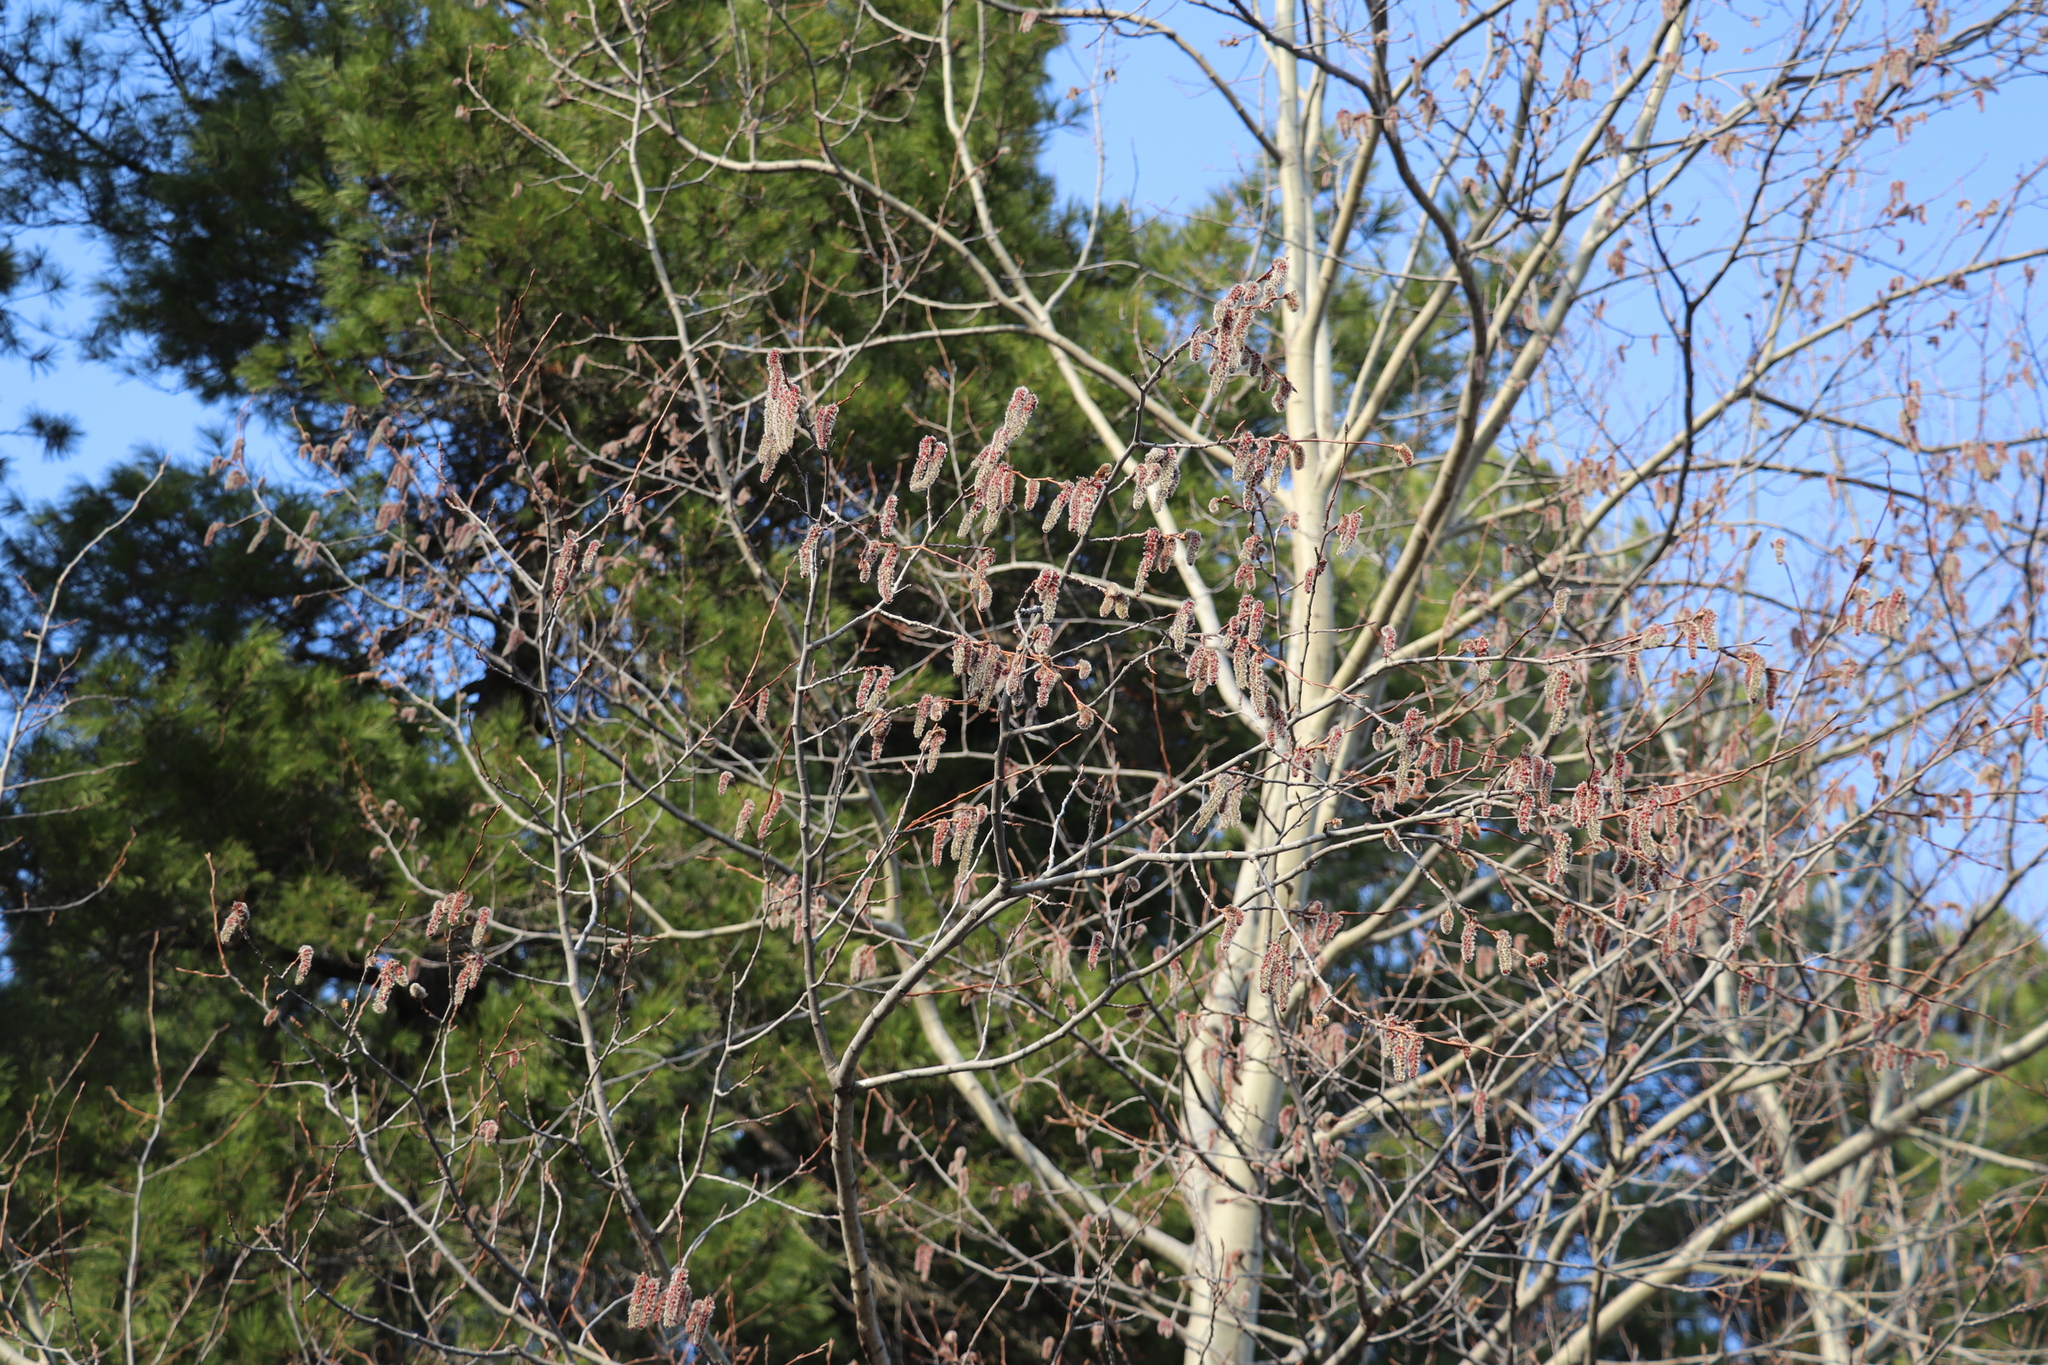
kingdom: Plantae
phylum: Tracheophyta
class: Magnoliopsida
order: Malpighiales
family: Salicaceae
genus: Populus
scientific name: Populus tremula
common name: European aspen
